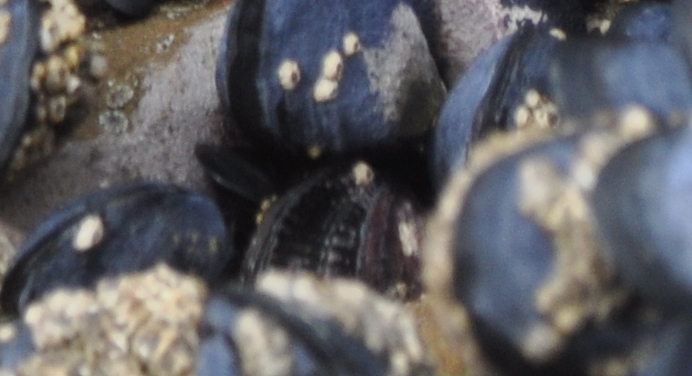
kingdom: Animalia
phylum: Mollusca
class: Bivalvia
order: Mytilida
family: Mytilidae
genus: Aulacomya
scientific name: Aulacomya maoriana
